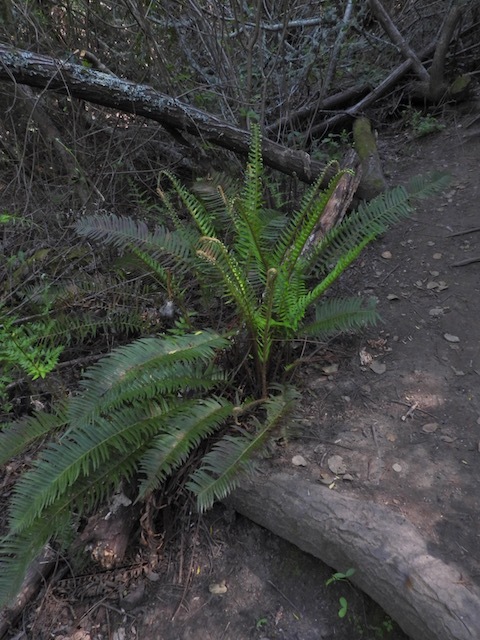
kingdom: Plantae
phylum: Tracheophyta
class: Polypodiopsida
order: Polypodiales
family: Dryopteridaceae
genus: Polystichum
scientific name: Polystichum munitum
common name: Western sword-fern
